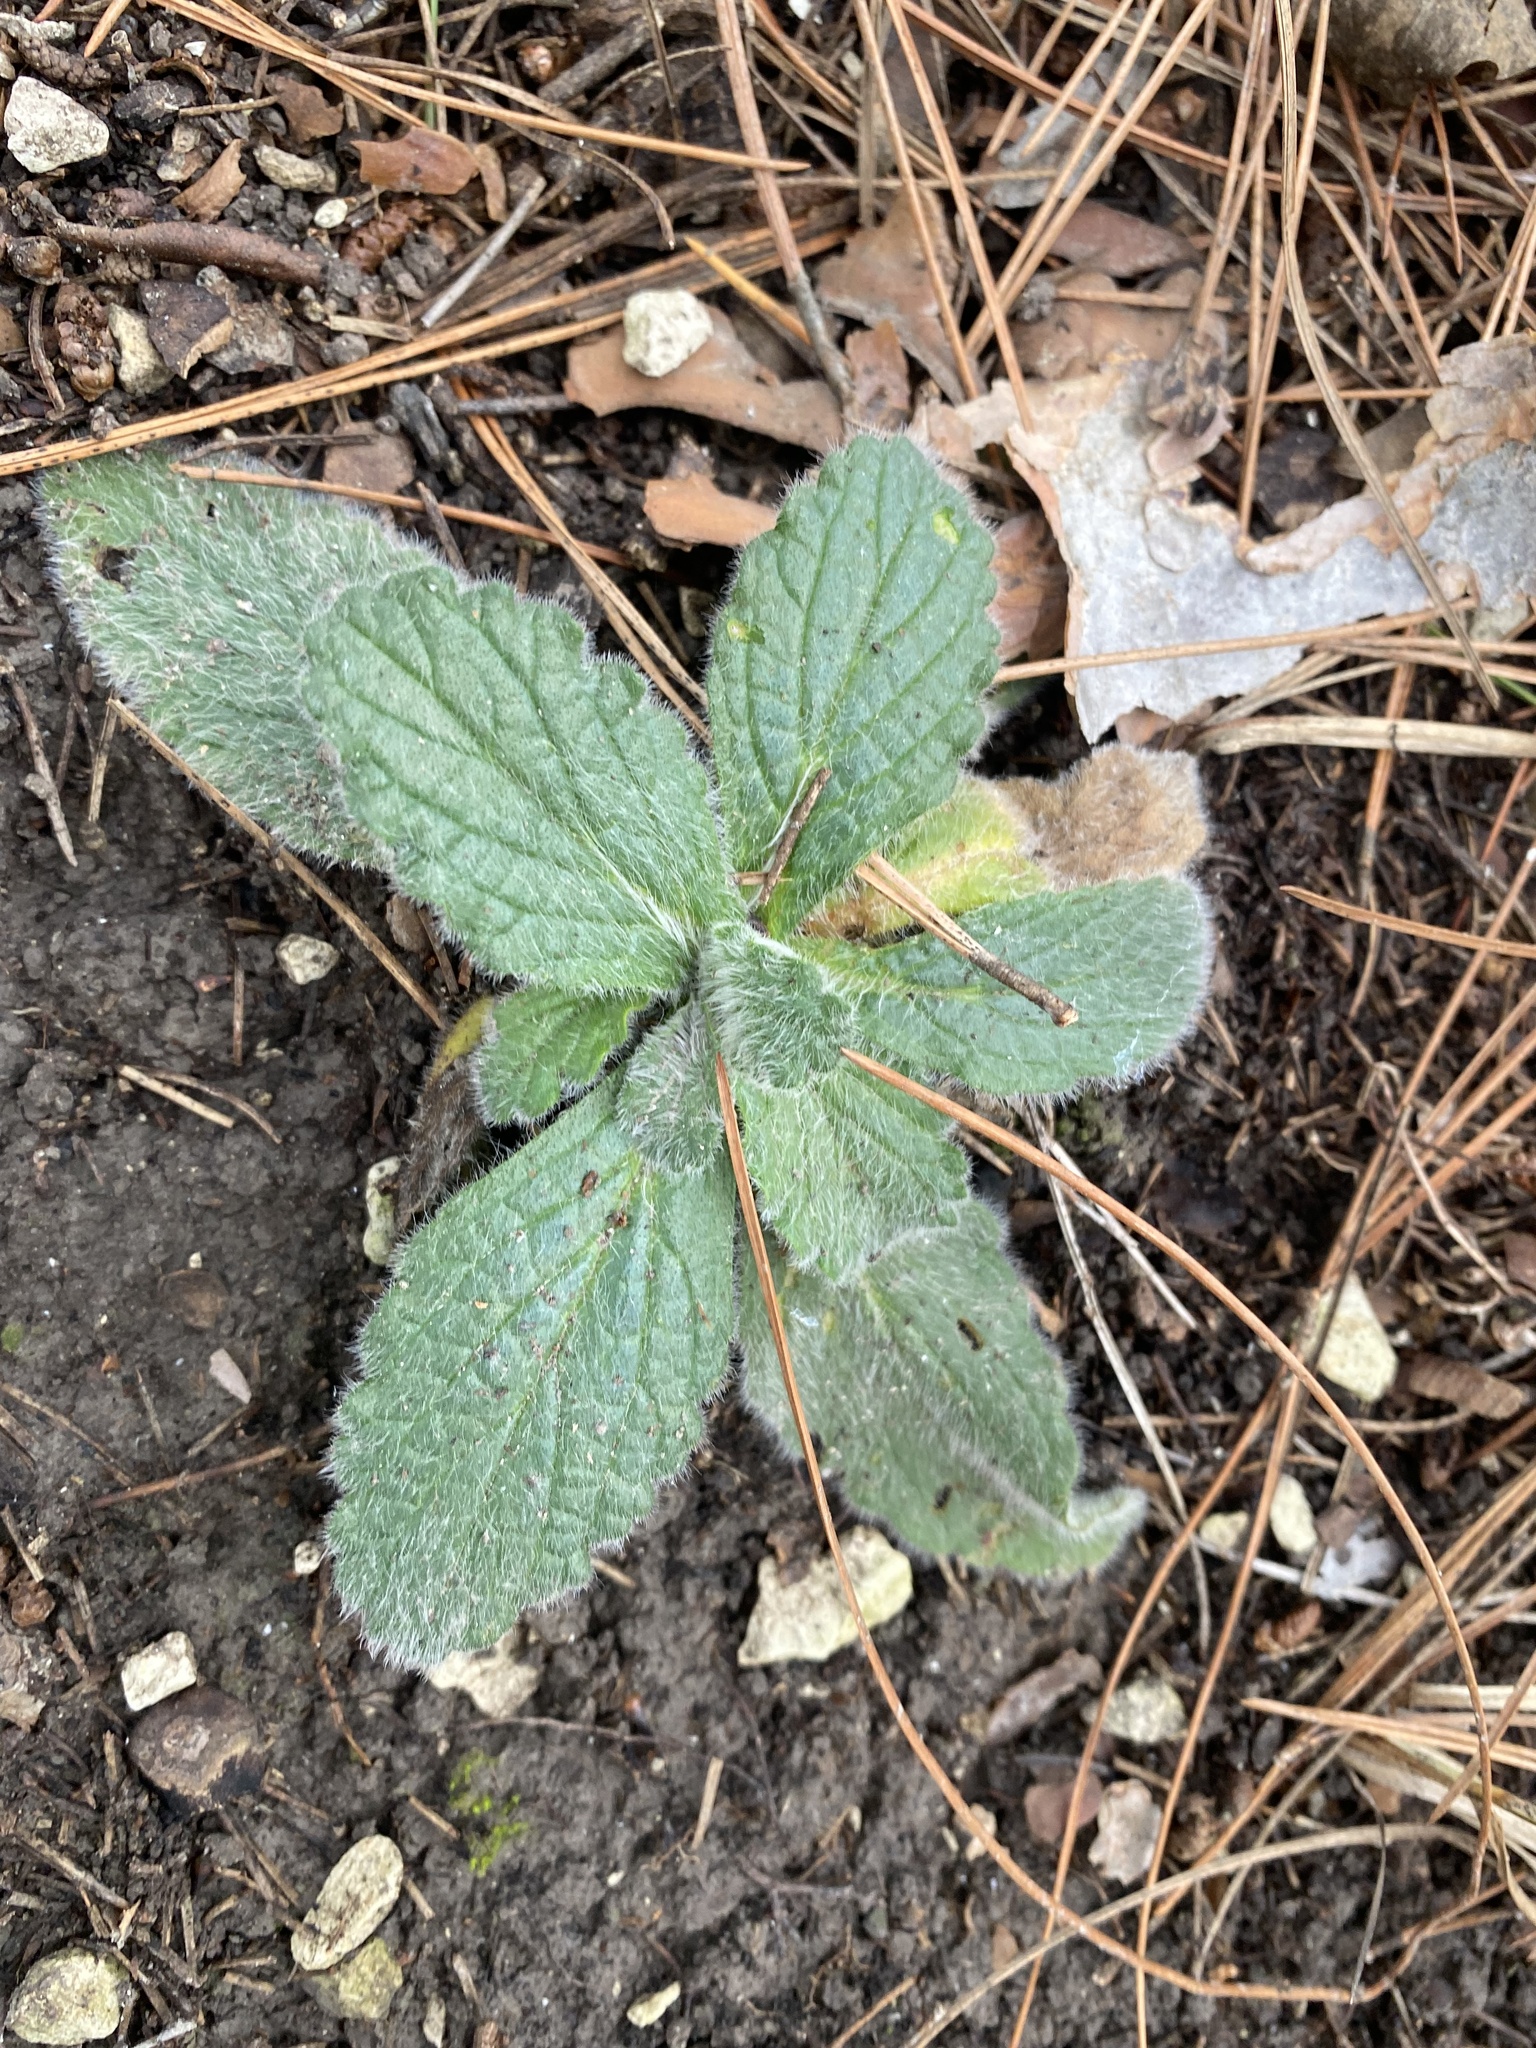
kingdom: Plantae
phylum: Tracheophyta
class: Magnoliopsida
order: Lamiales
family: Lamiaceae
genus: Ajuga
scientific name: Ajuga orientalis
